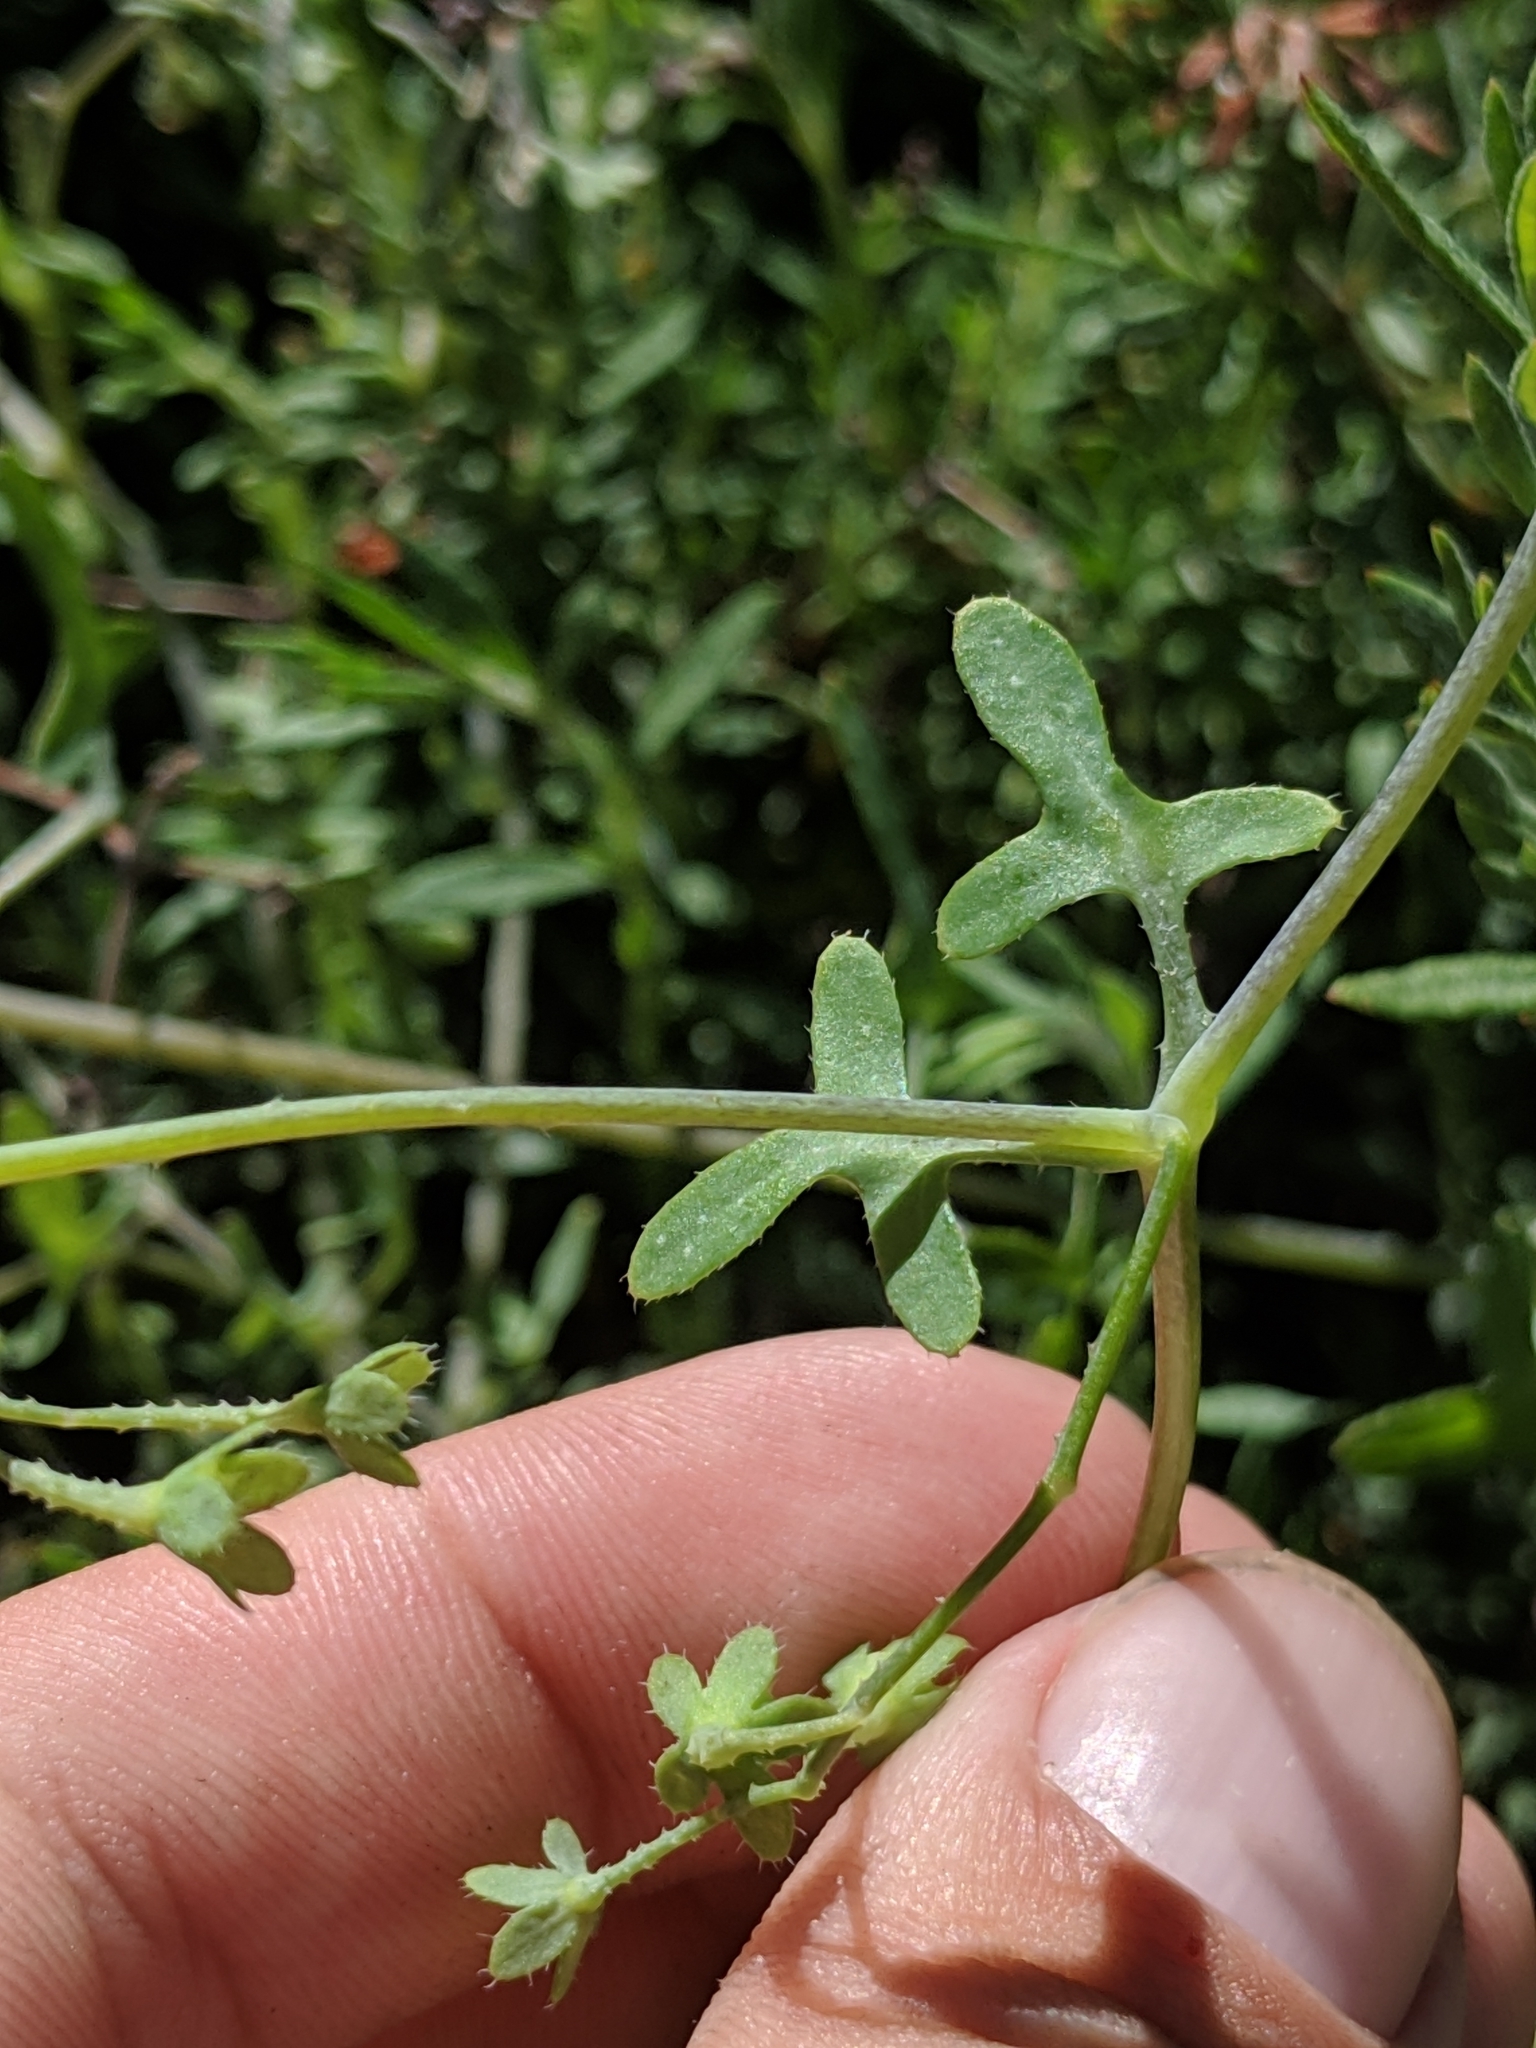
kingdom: Plantae
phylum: Tracheophyta
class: Magnoliopsida
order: Boraginales
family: Hydrophyllaceae
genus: Pholistoma
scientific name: Pholistoma membranaceum
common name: White fiesta-flower
